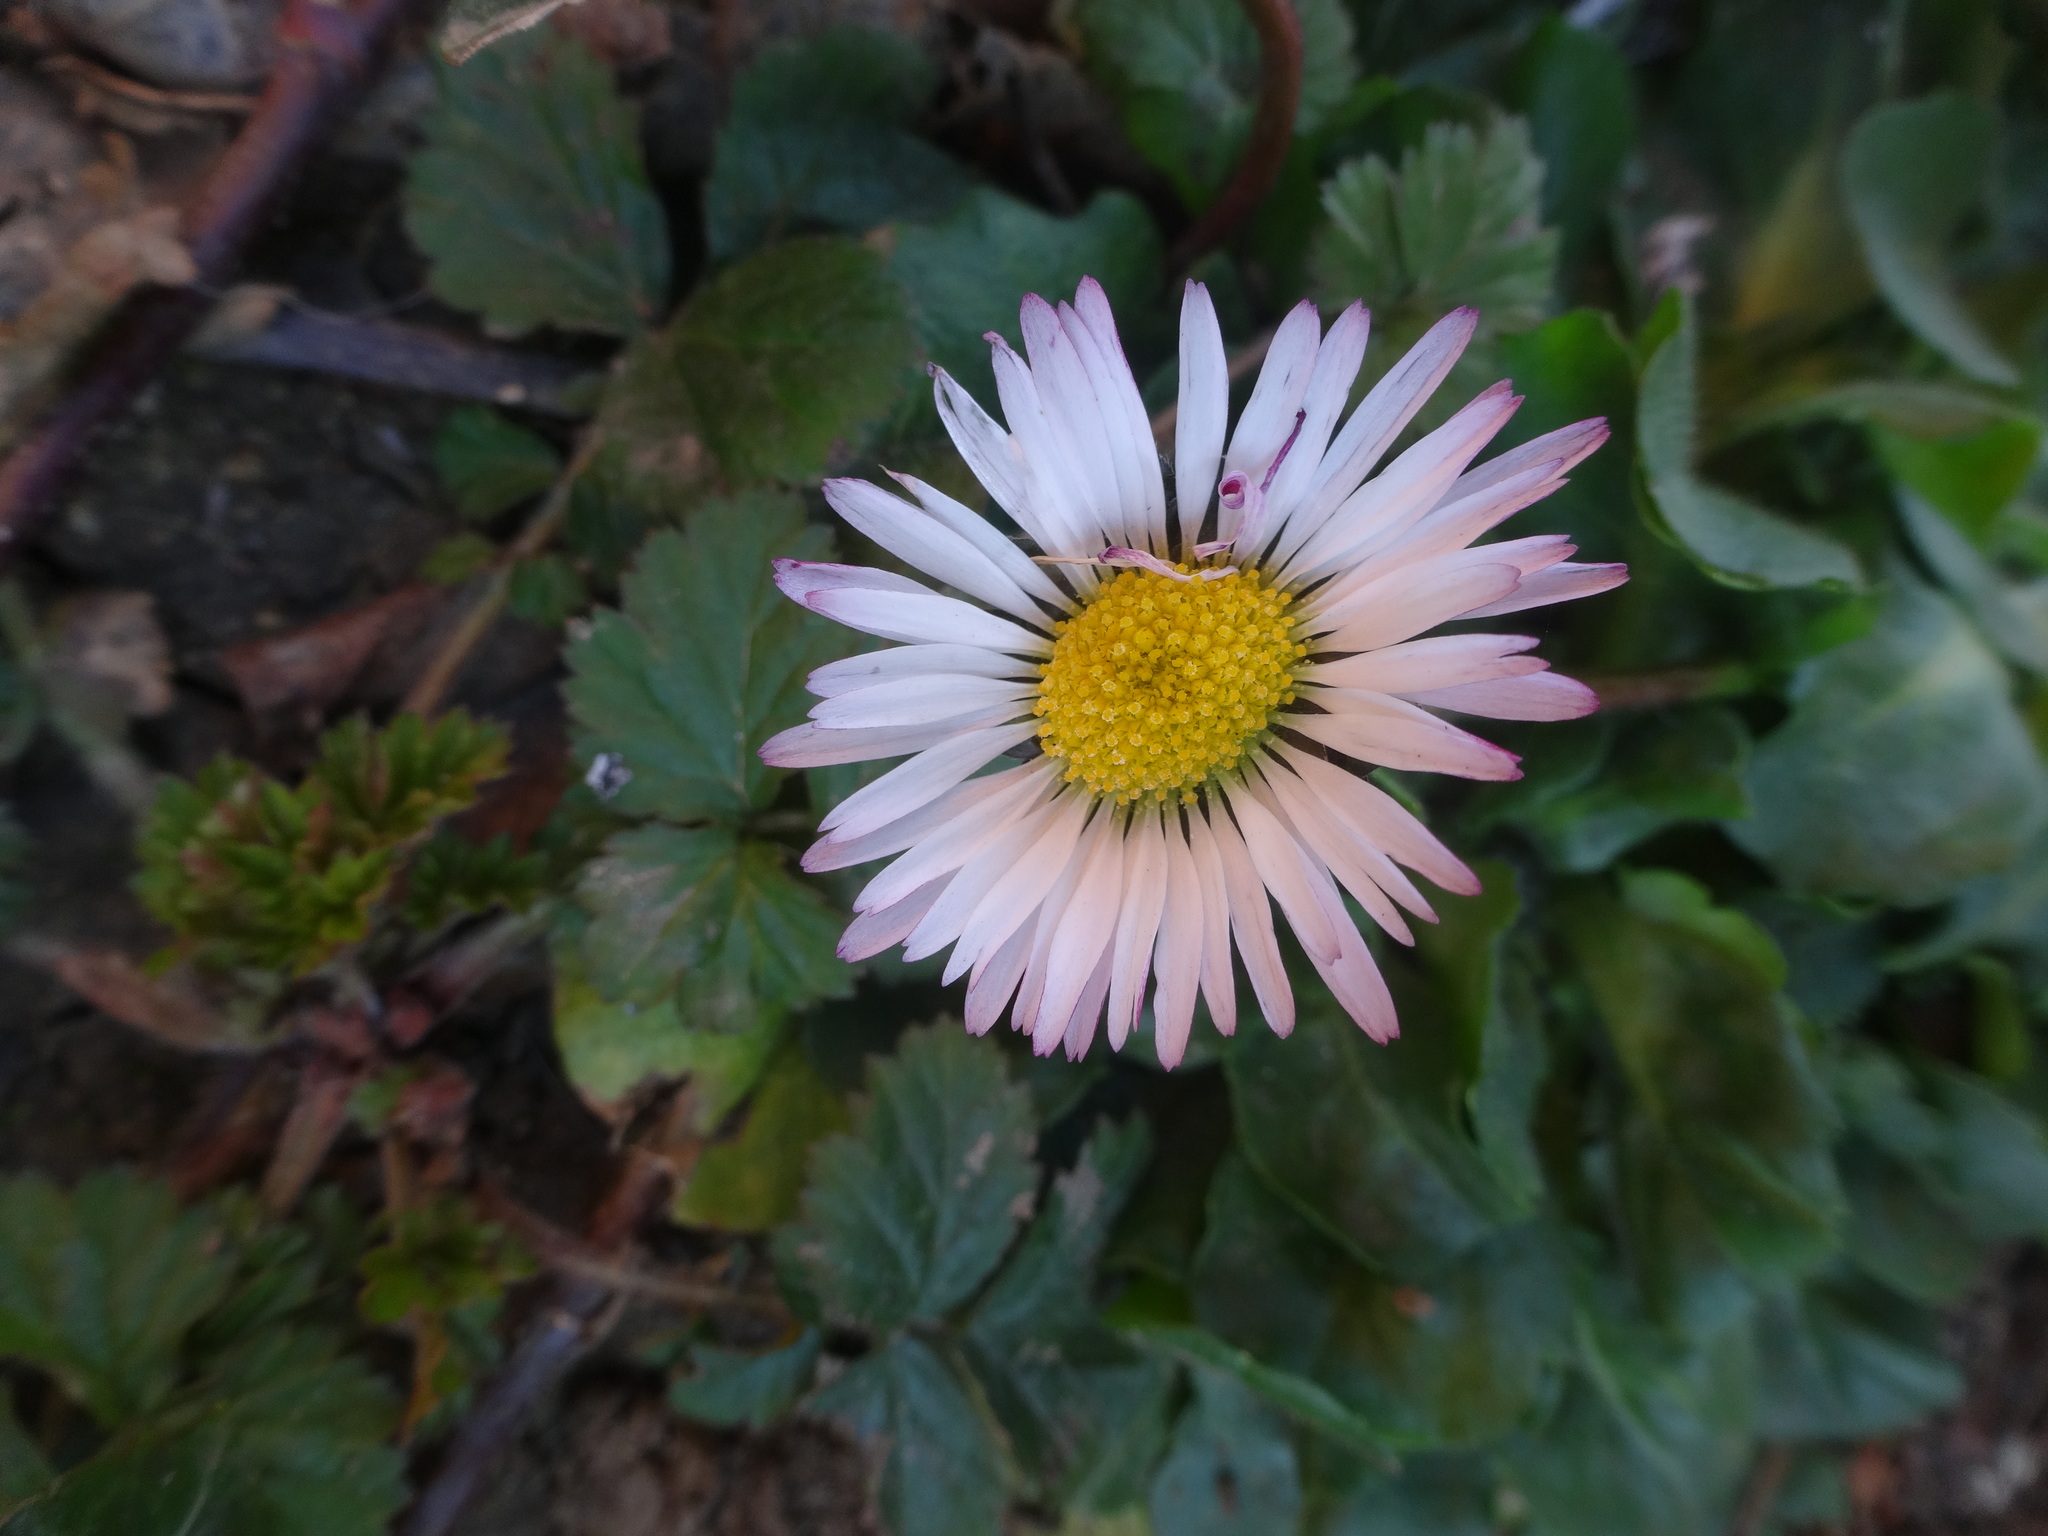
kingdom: Plantae
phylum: Tracheophyta
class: Magnoliopsida
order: Asterales
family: Asteraceae
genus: Bellis
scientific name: Bellis perennis
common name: Lawndaisy
